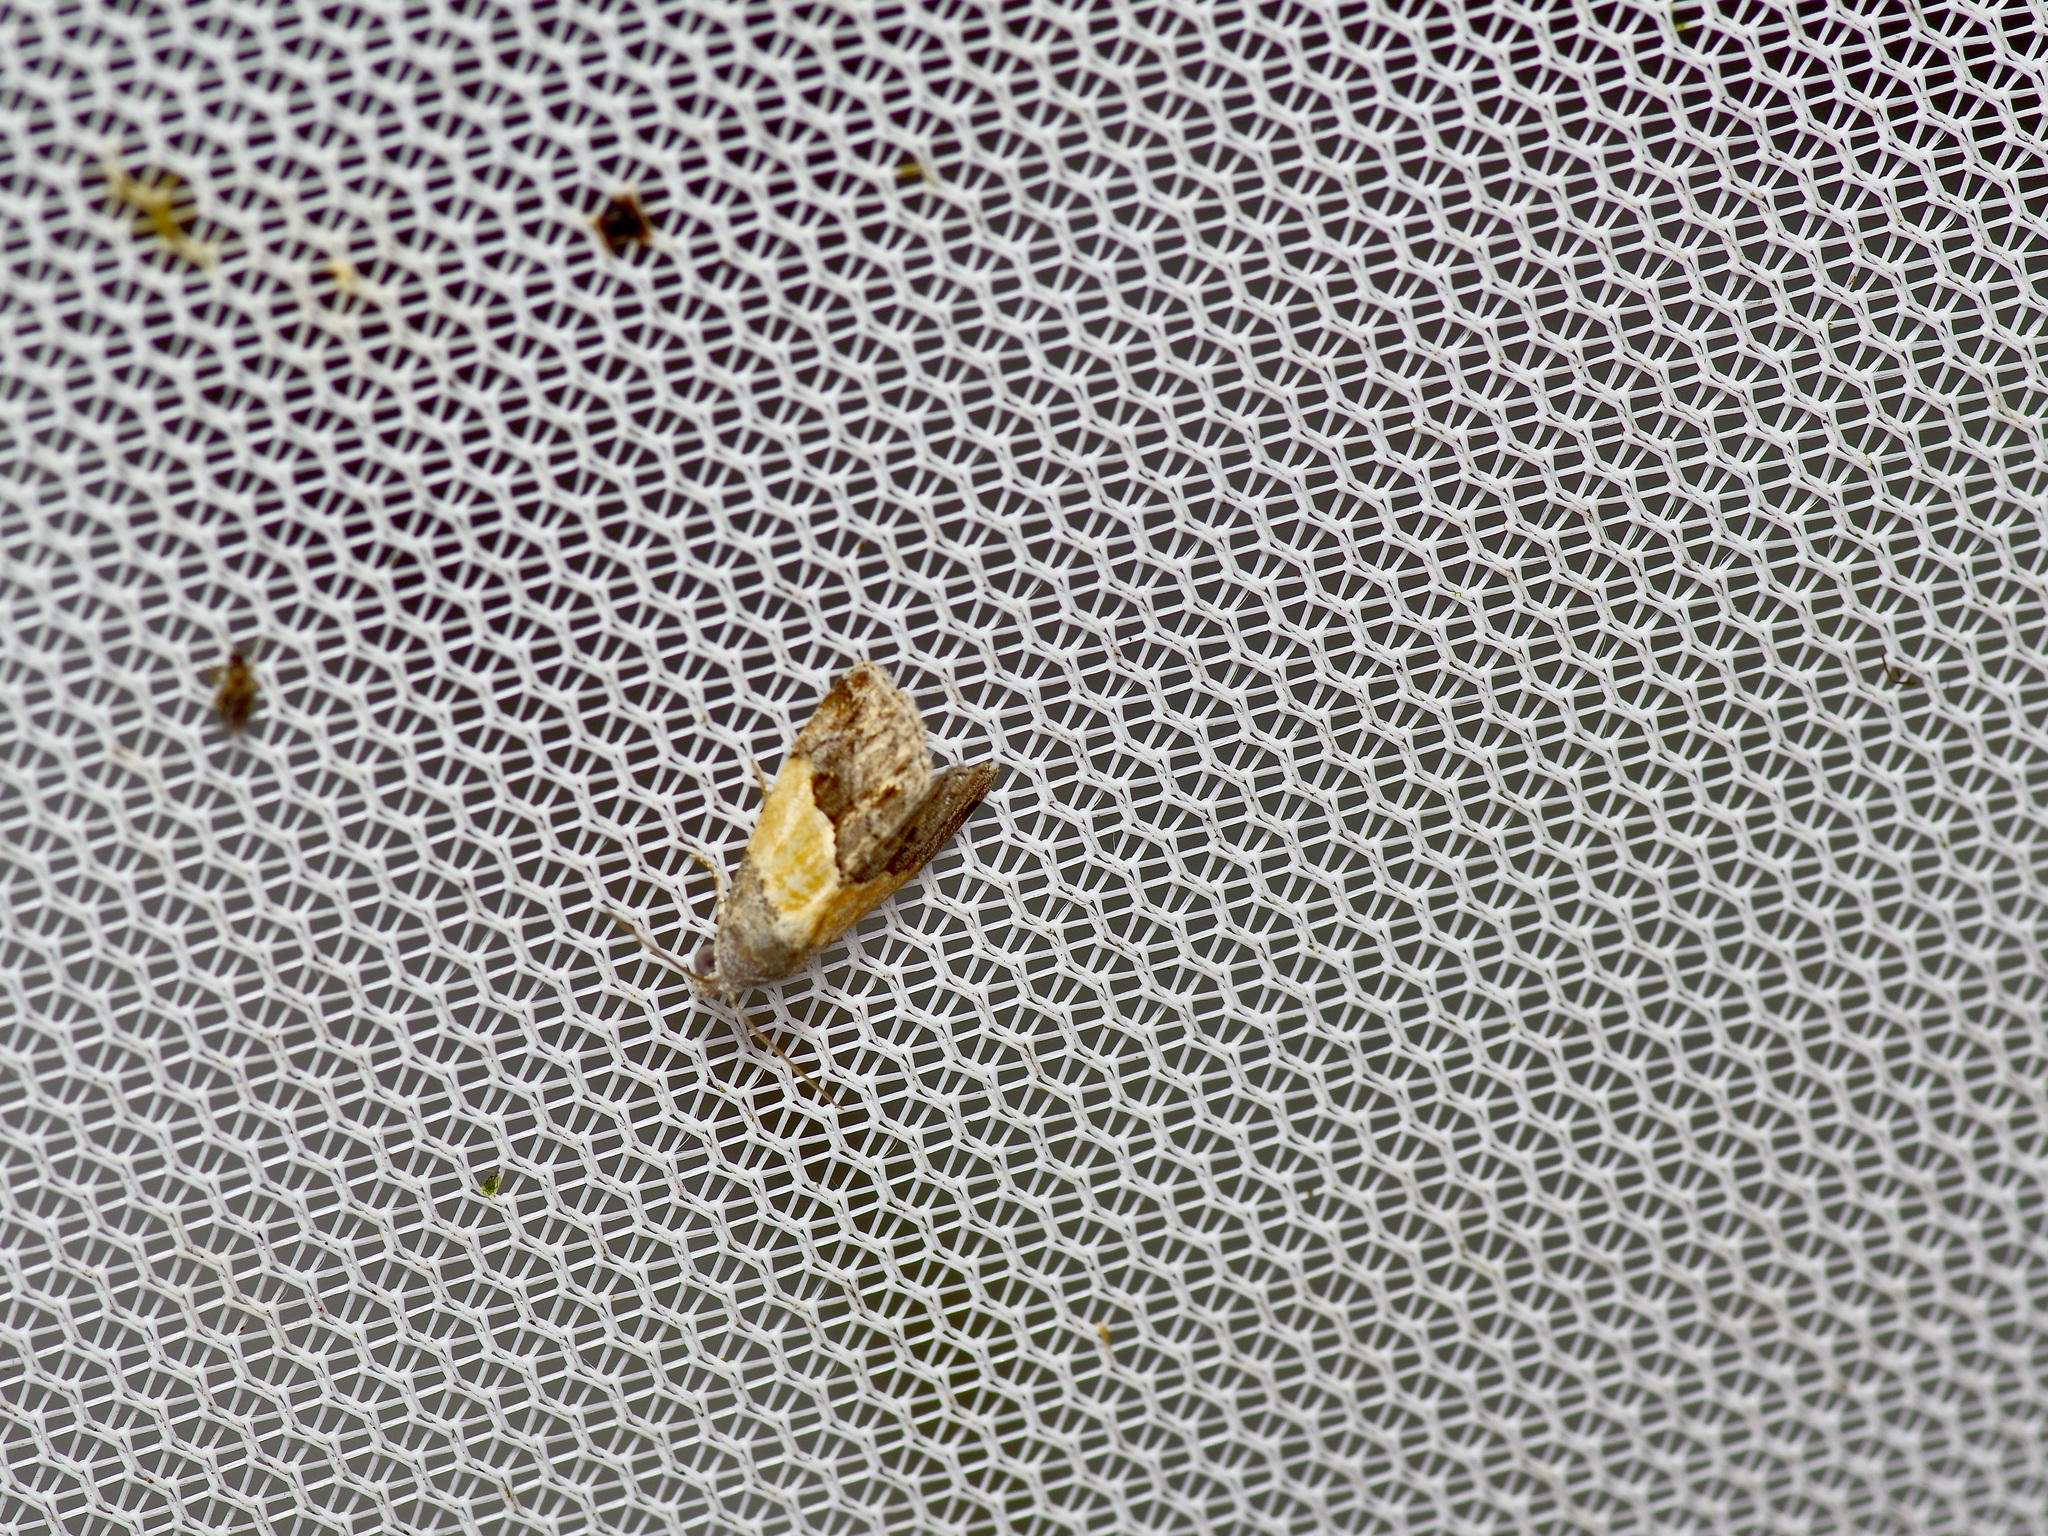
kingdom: Animalia
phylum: Arthropoda
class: Insecta
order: Lepidoptera
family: Noctuidae
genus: Tripudia
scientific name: Tripudia balteata
